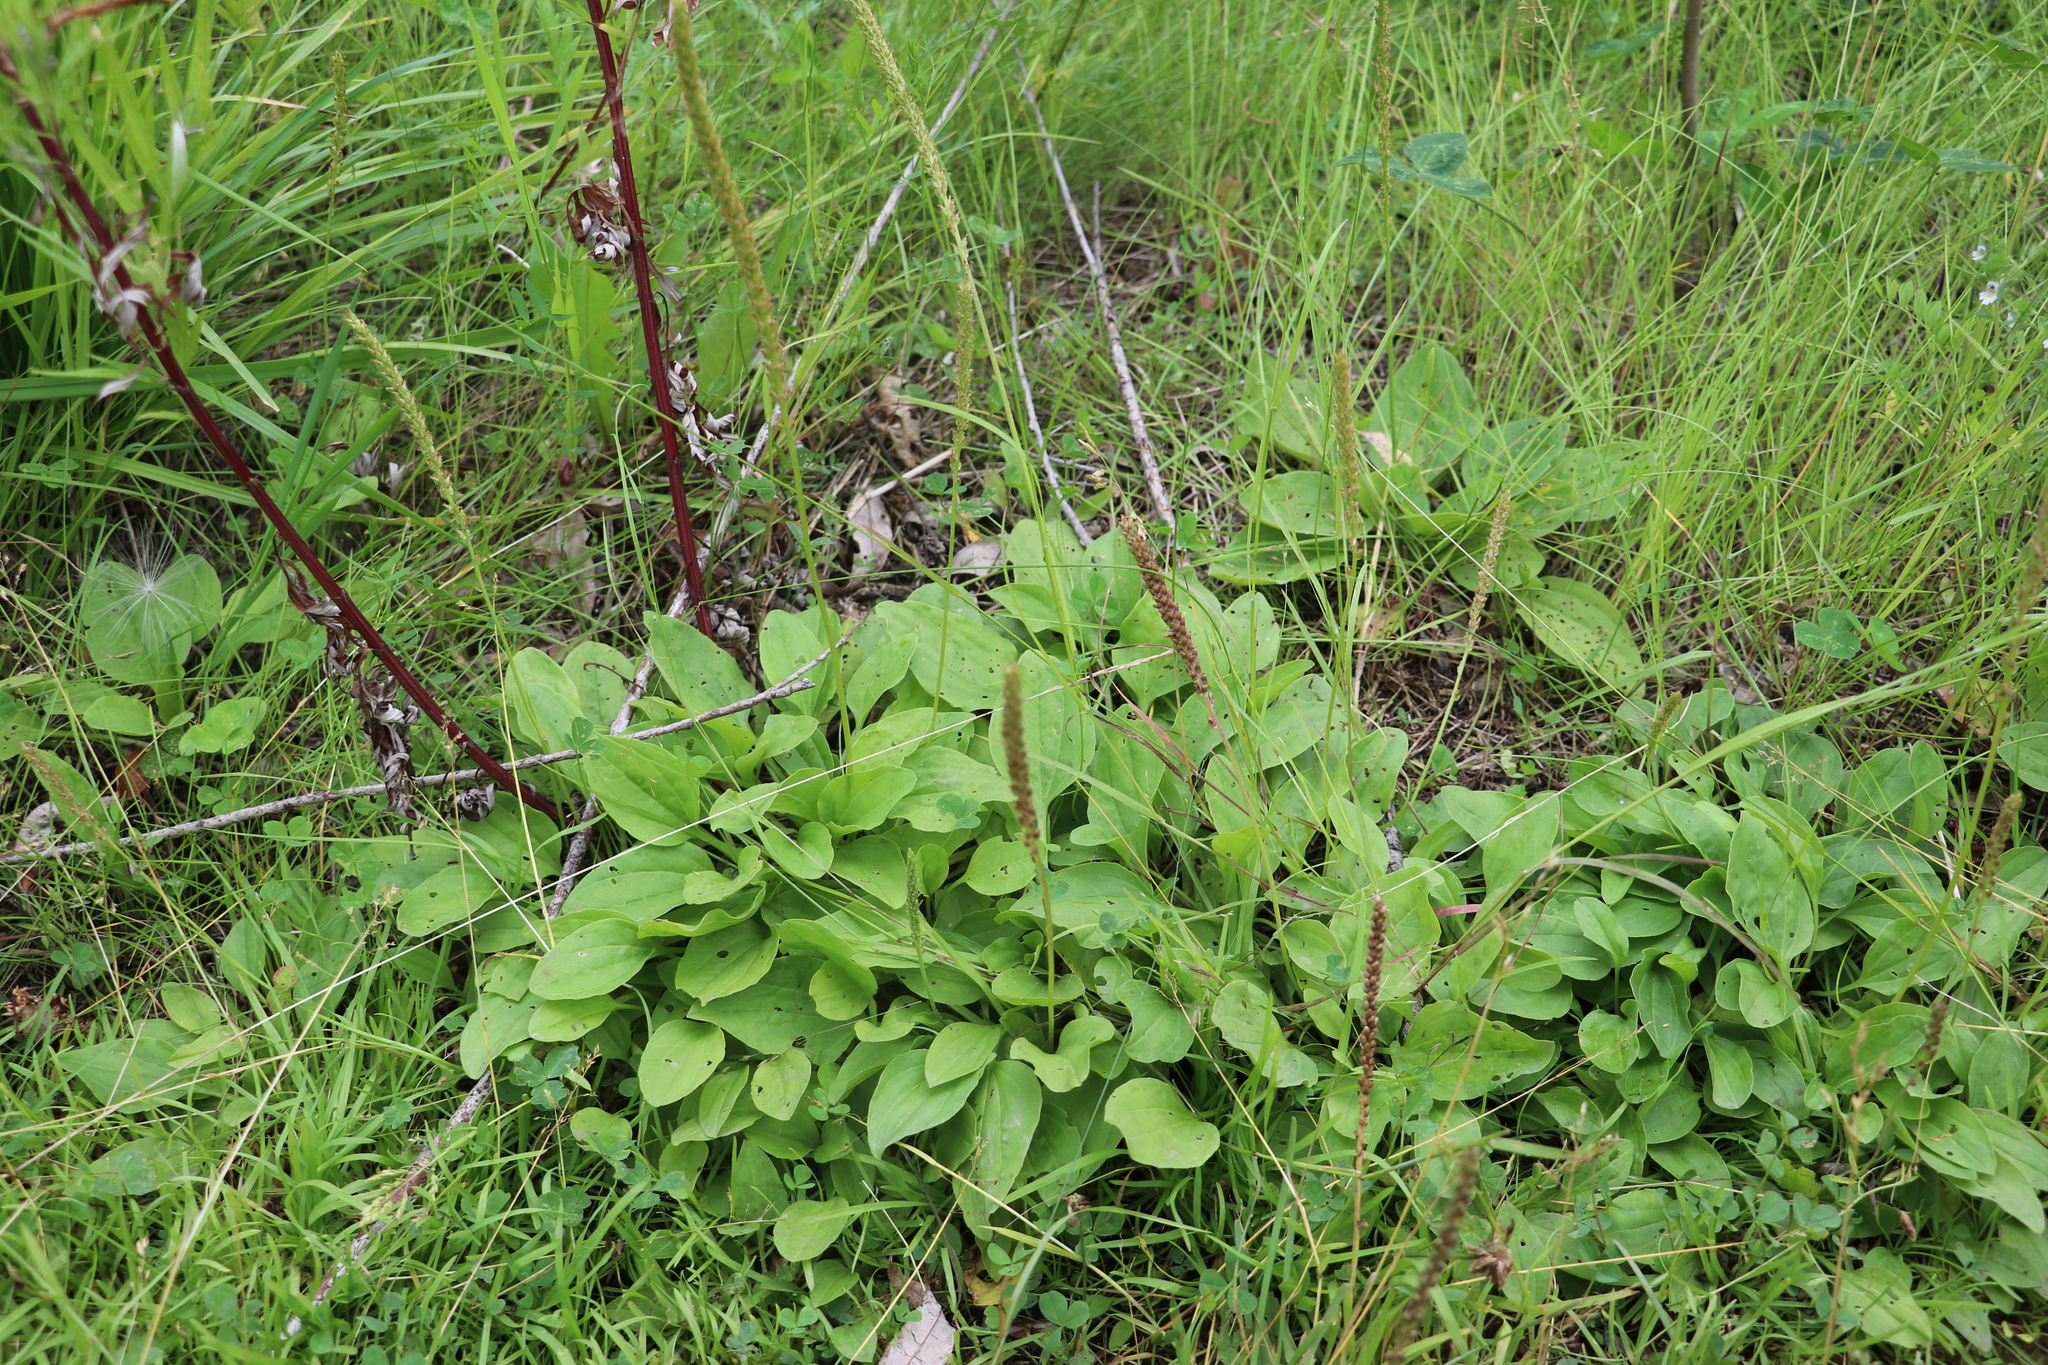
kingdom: Plantae
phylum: Tracheophyta
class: Magnoliopsida
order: Lamiales
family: Plantaginaceae
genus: Plantago
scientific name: Plantago major
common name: Common plantain
